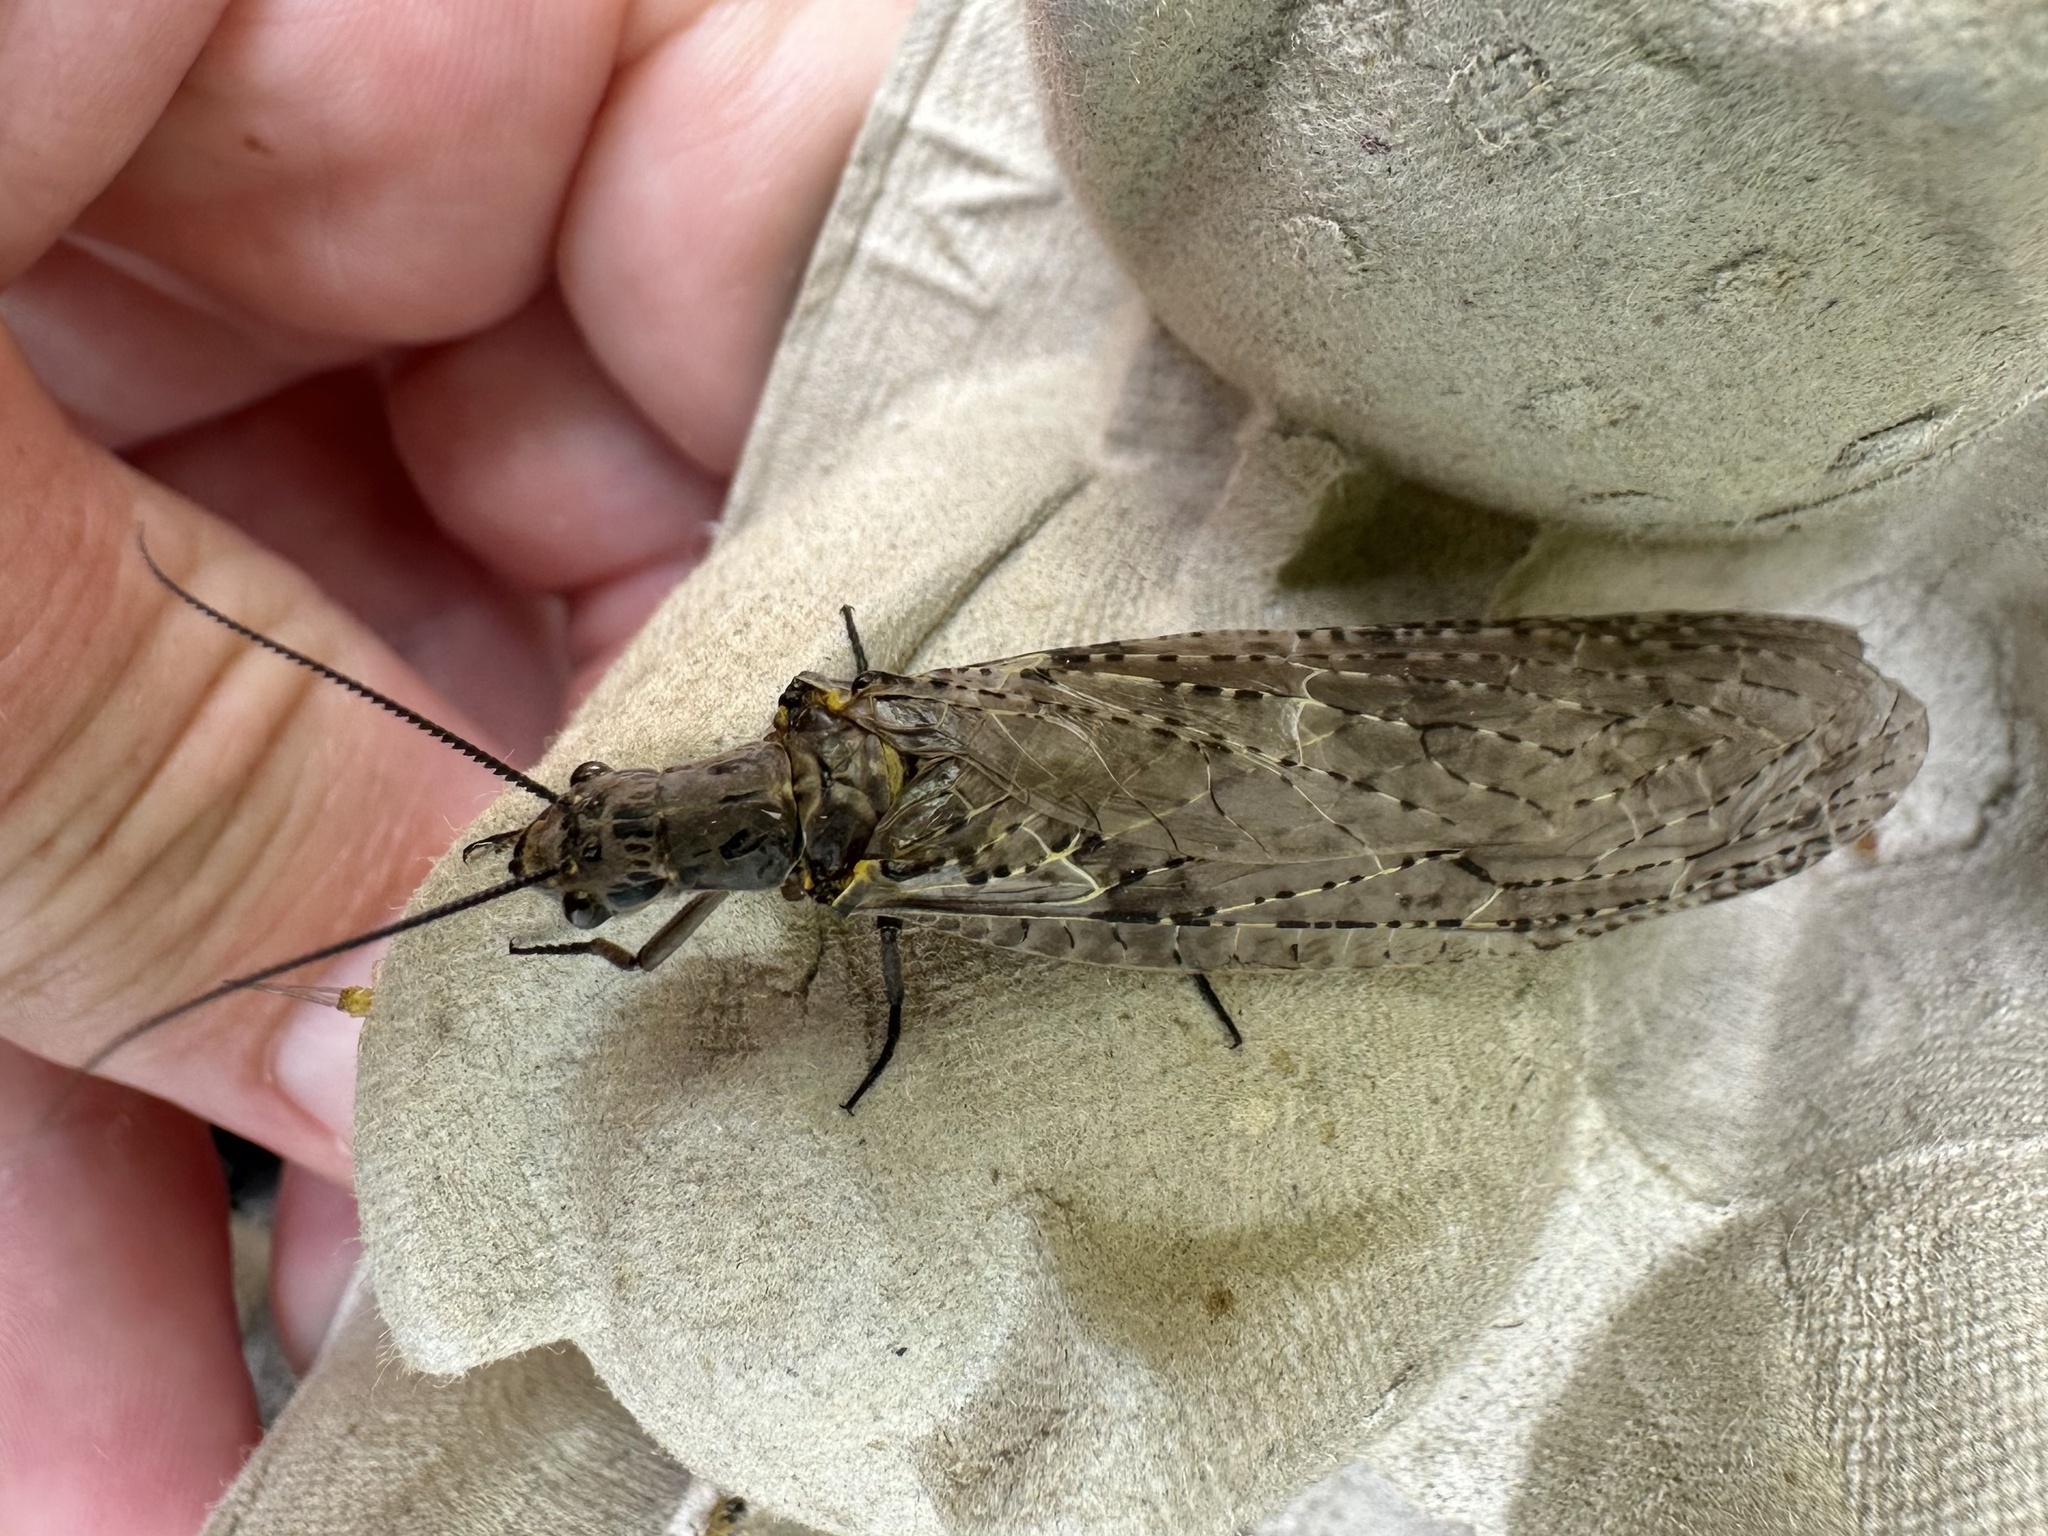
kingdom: Animalia
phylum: Arthropoda
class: Insecta
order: Megaloptera
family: Corydalidae
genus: Chauliodes
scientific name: Chauliodes rastricornis
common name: Spring fishfly
